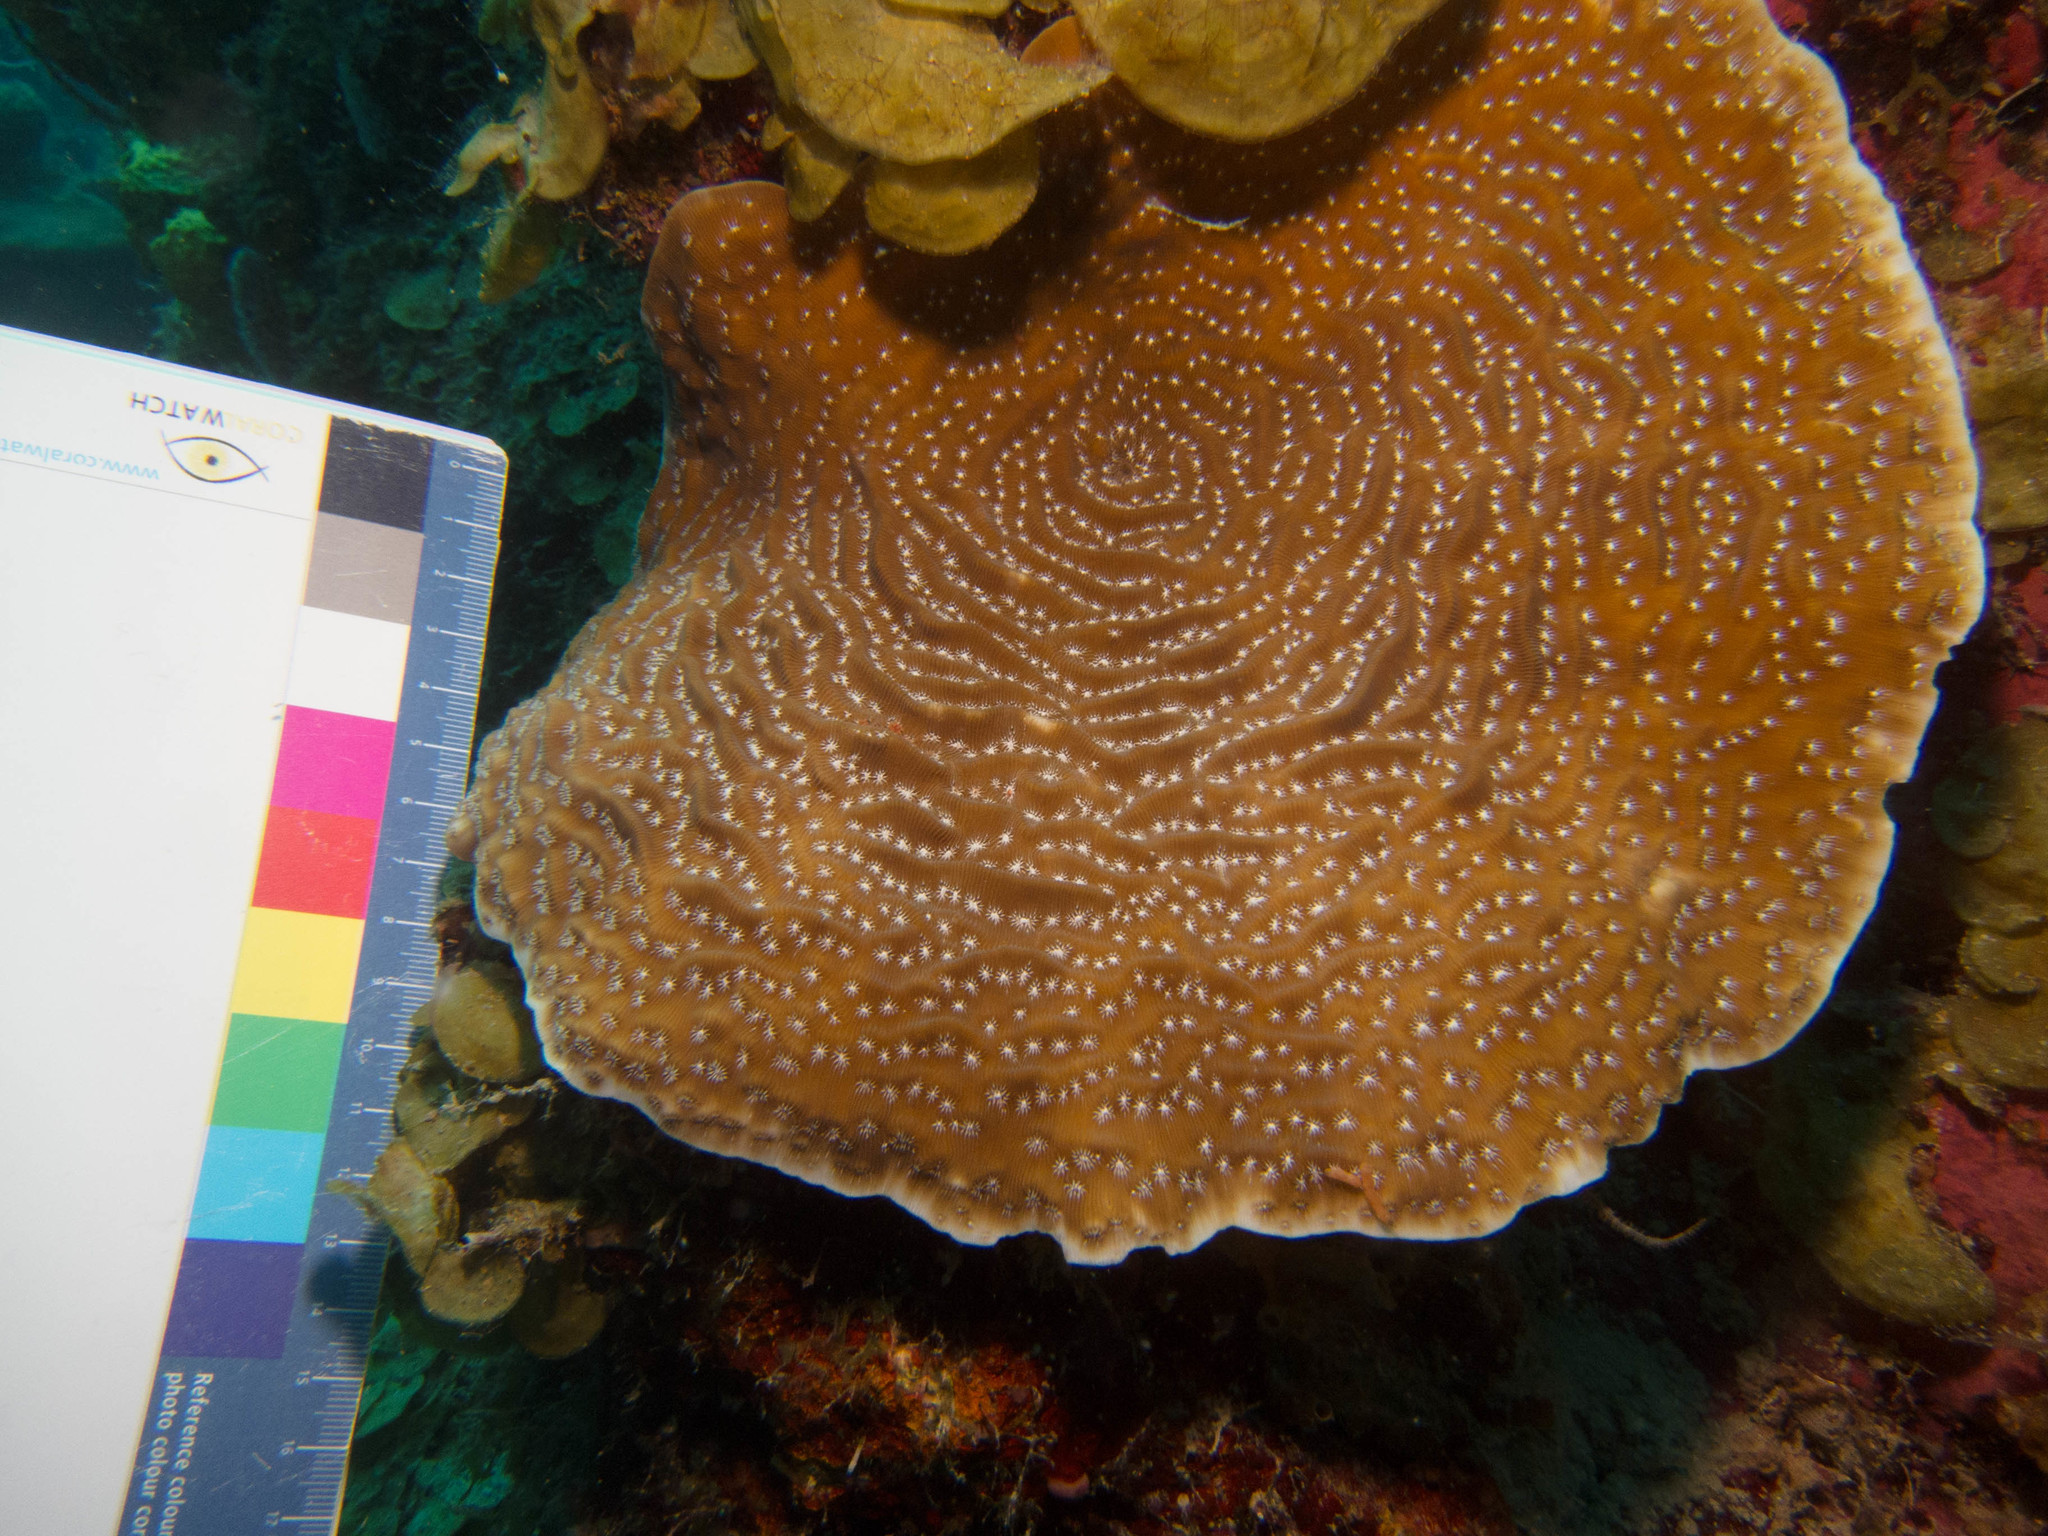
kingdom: Animalia
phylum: Cnidaria
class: Anthozoa
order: Scleractinia
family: Agariciidae
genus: Agaricia
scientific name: Agaricia lamarcki
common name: Lamarck's sheet coral
